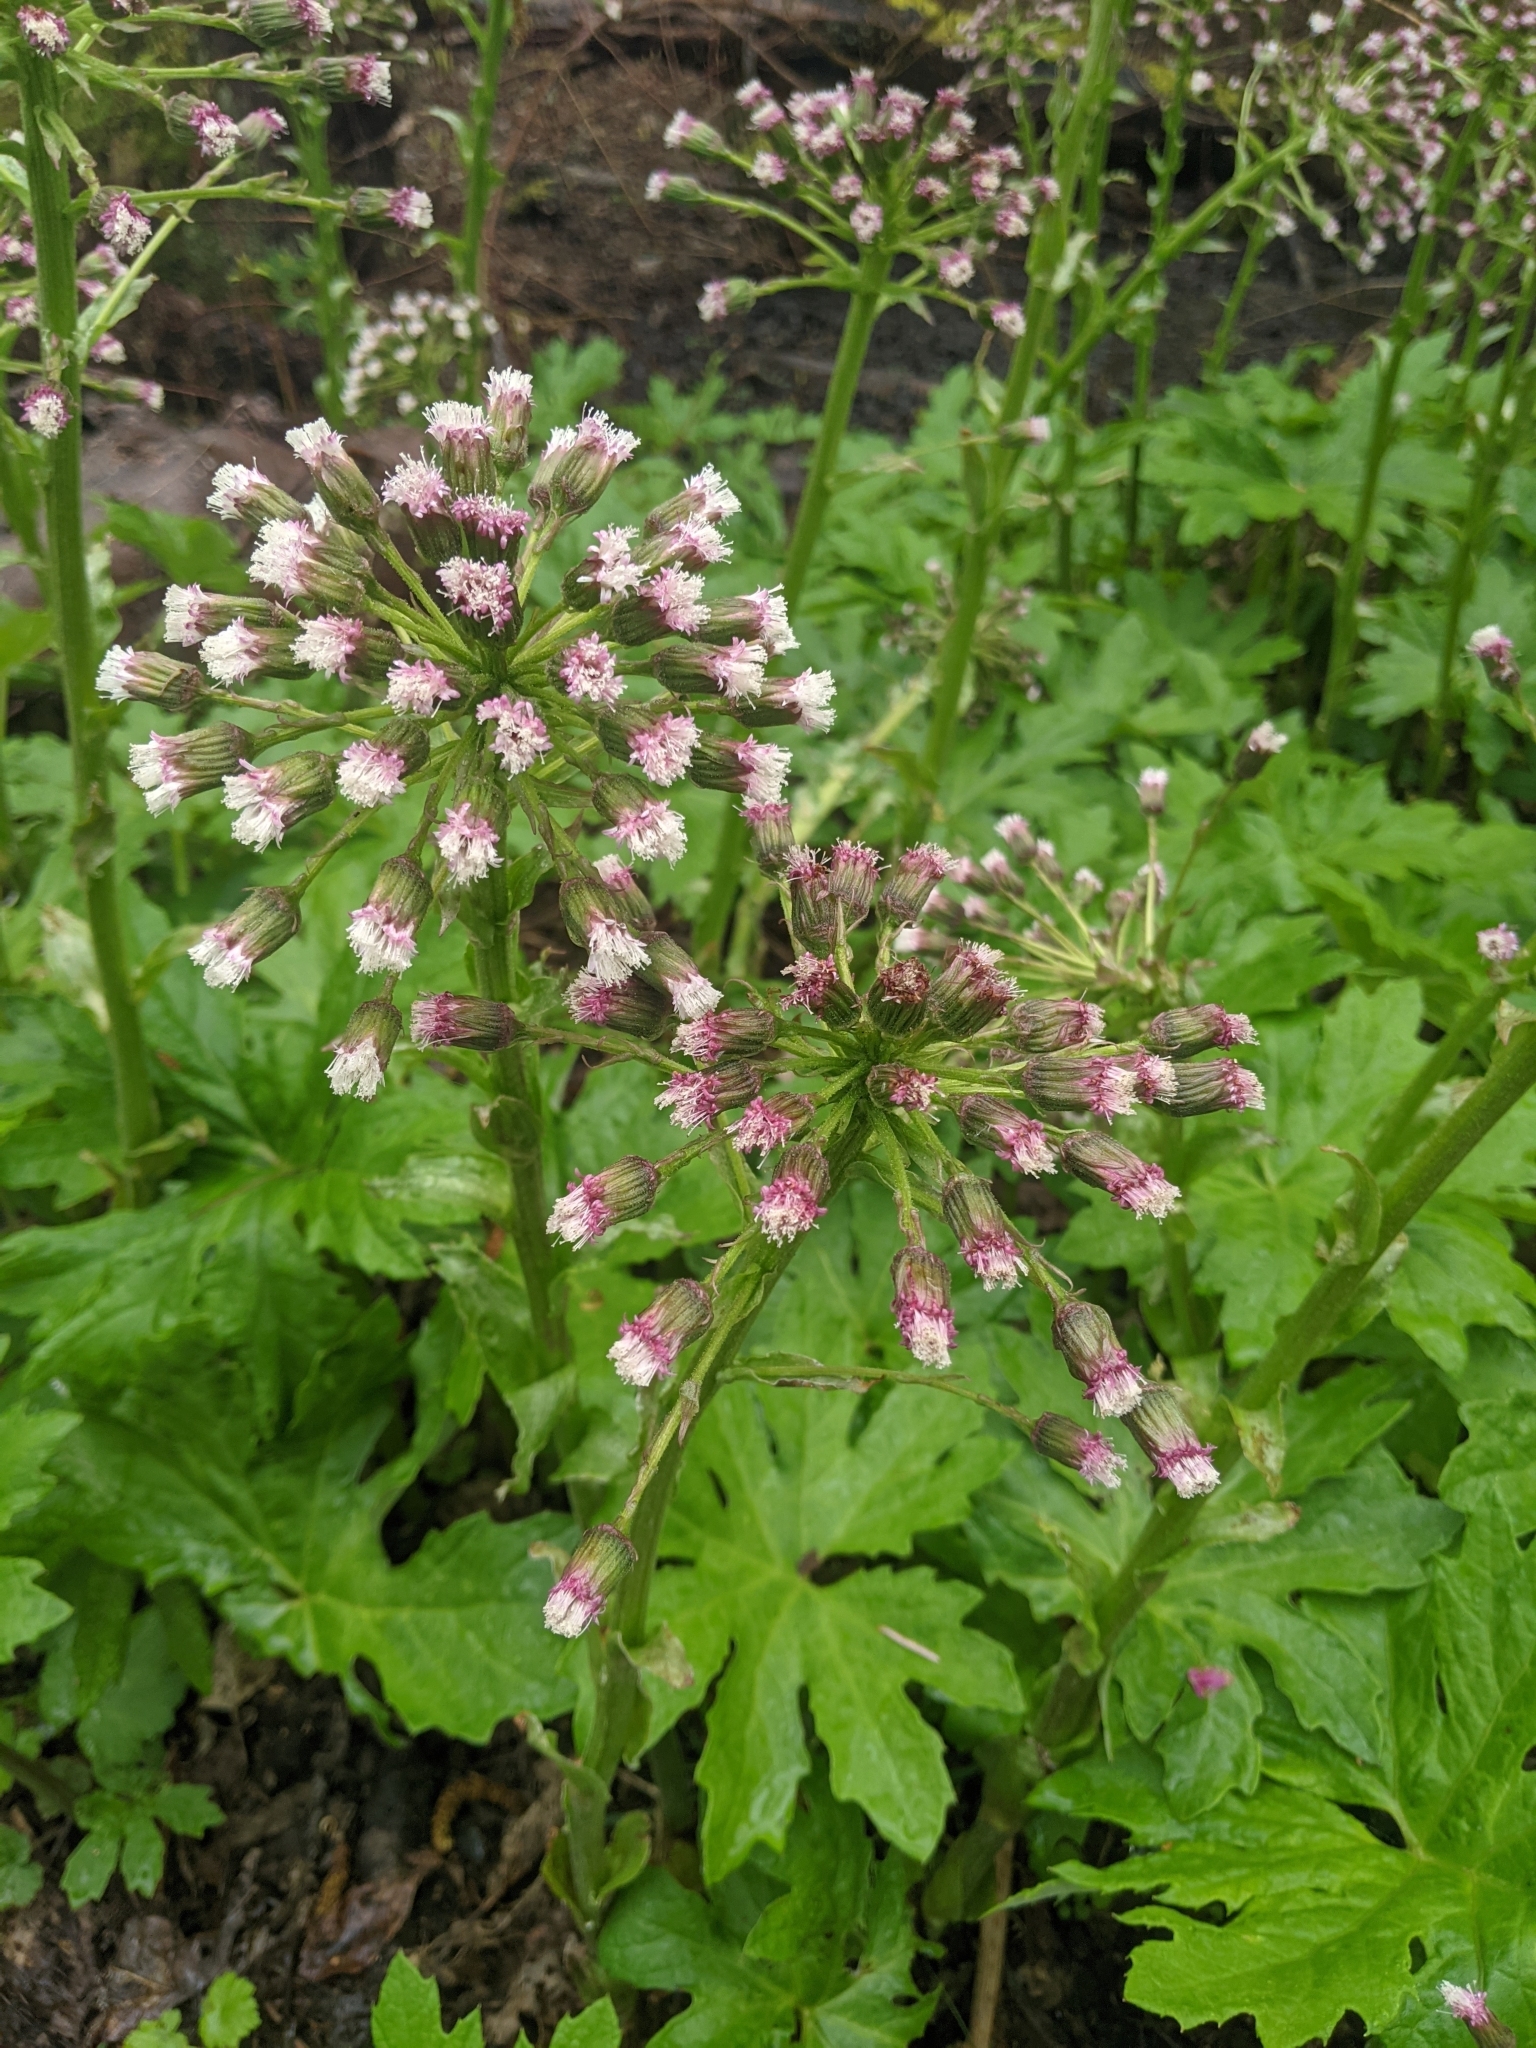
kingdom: Plantae
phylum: Tracheophyta
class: Magnoliopsida
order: Asterales
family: Asteraceae
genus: Petasites
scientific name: Petasites frigidus
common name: Arctic butterbur
